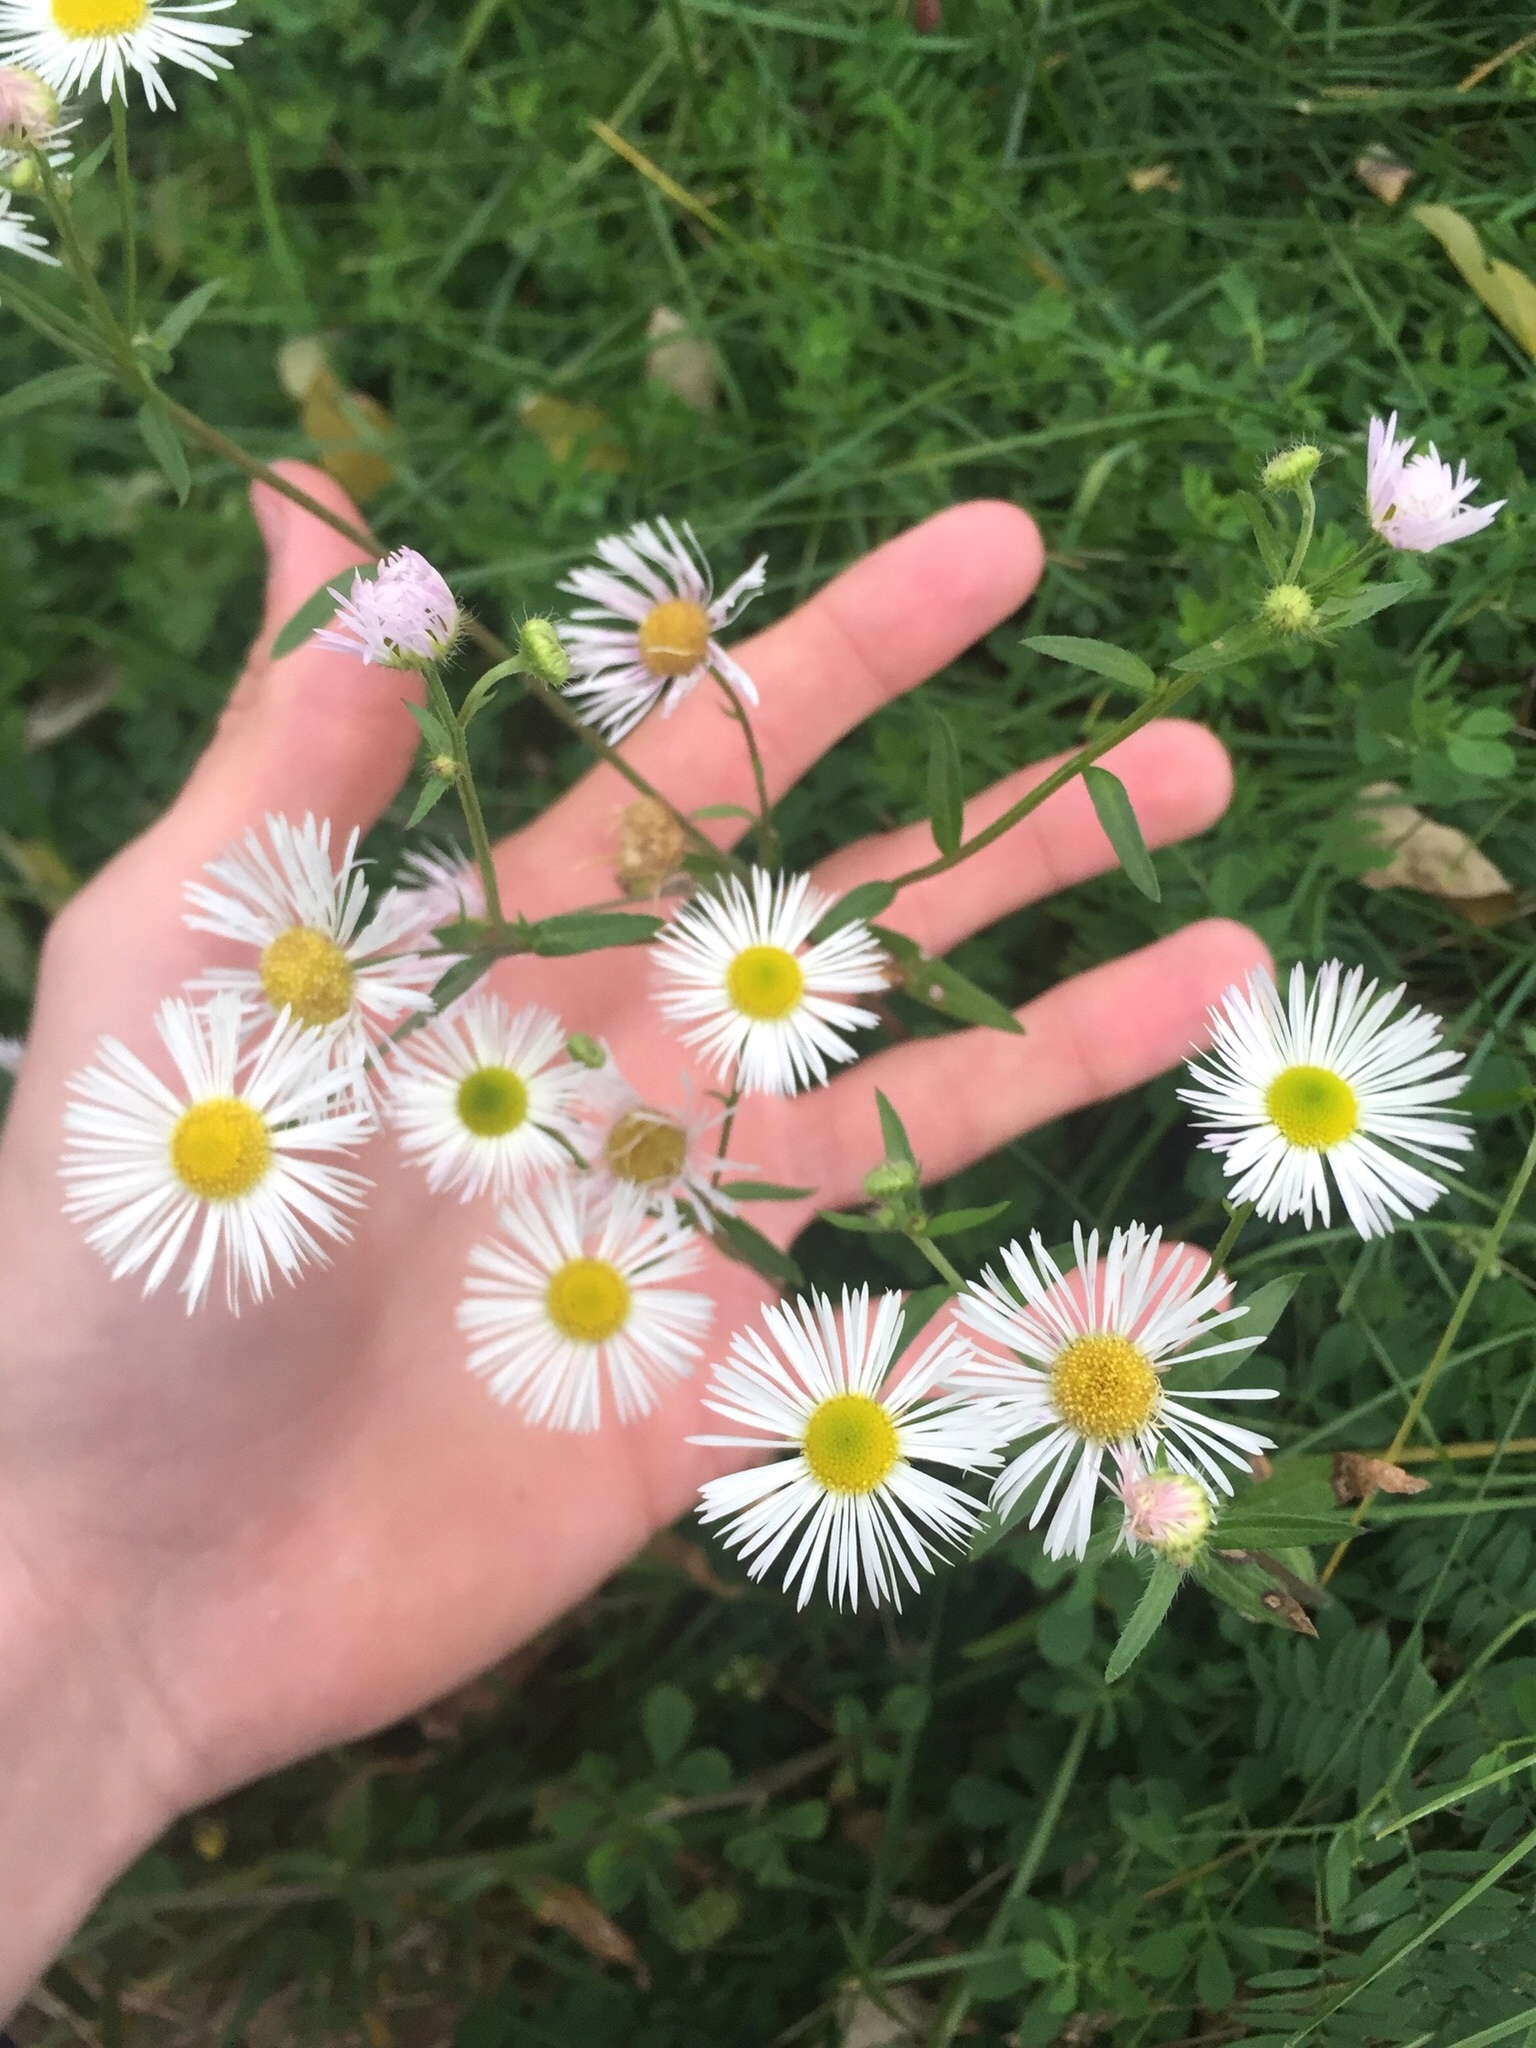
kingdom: Plantae
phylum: Tracheophyta
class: Magnoliopsida
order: Asterales
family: Asteraceae
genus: Erigeron
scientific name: Erigeron annuus
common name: Tall fleabane
